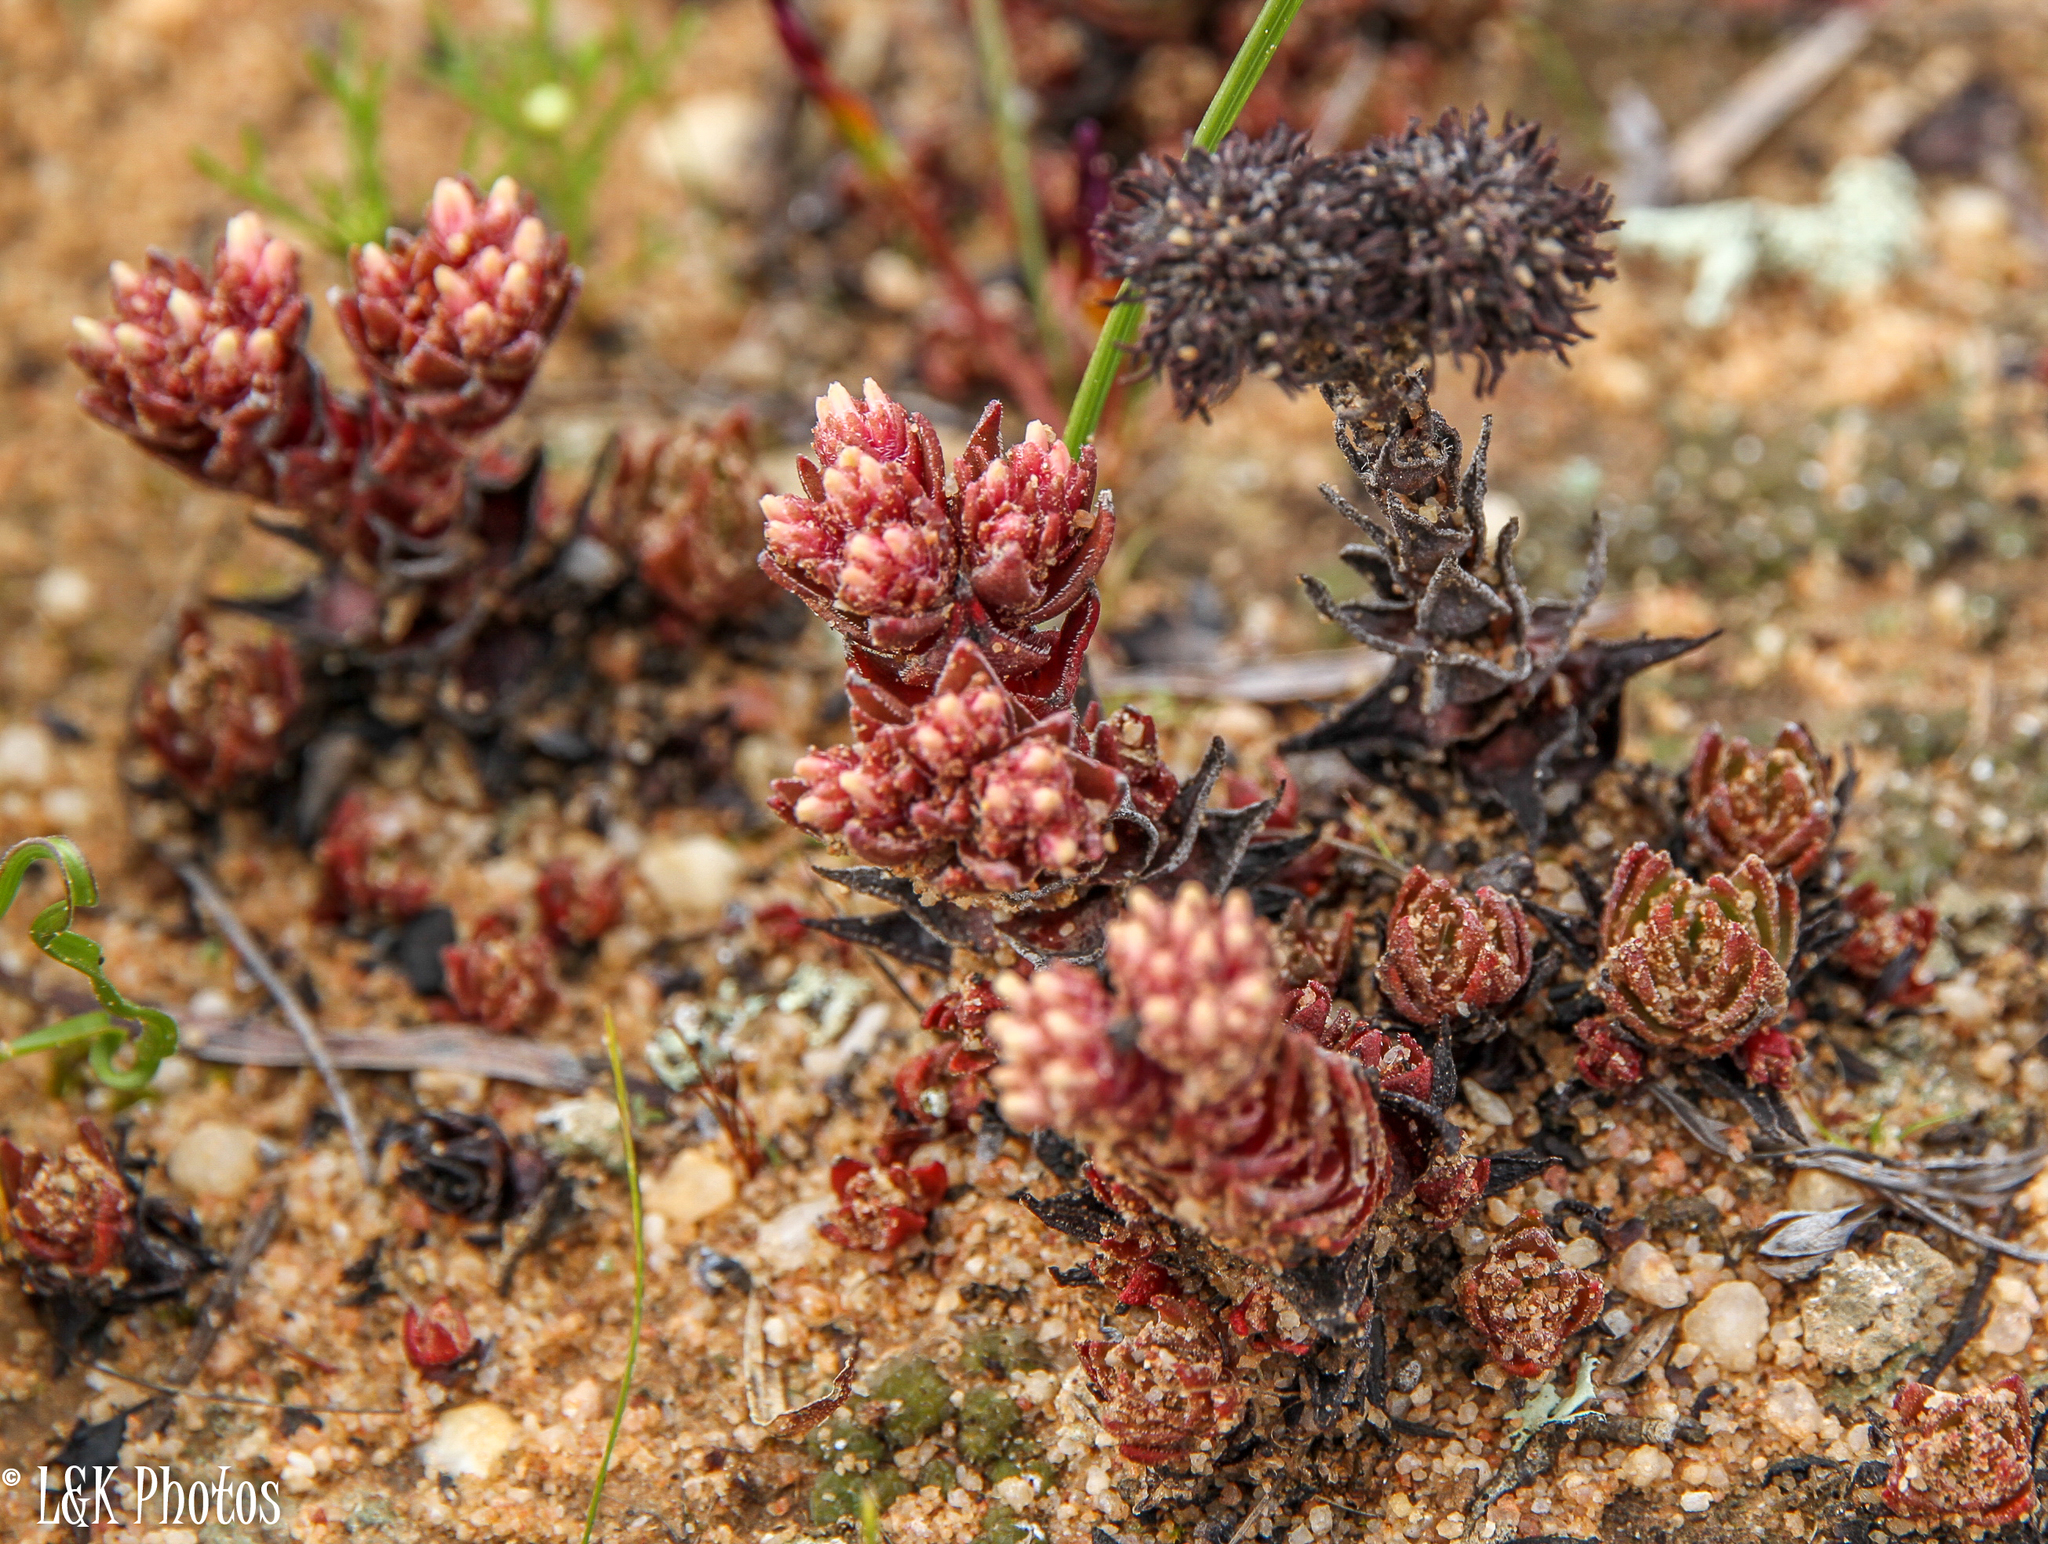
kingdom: Plantae
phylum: Tracheophyta
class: Magnoliopsida
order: Saxifragales
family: Crassulaceae
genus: Crassula
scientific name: Crassula alpestris
